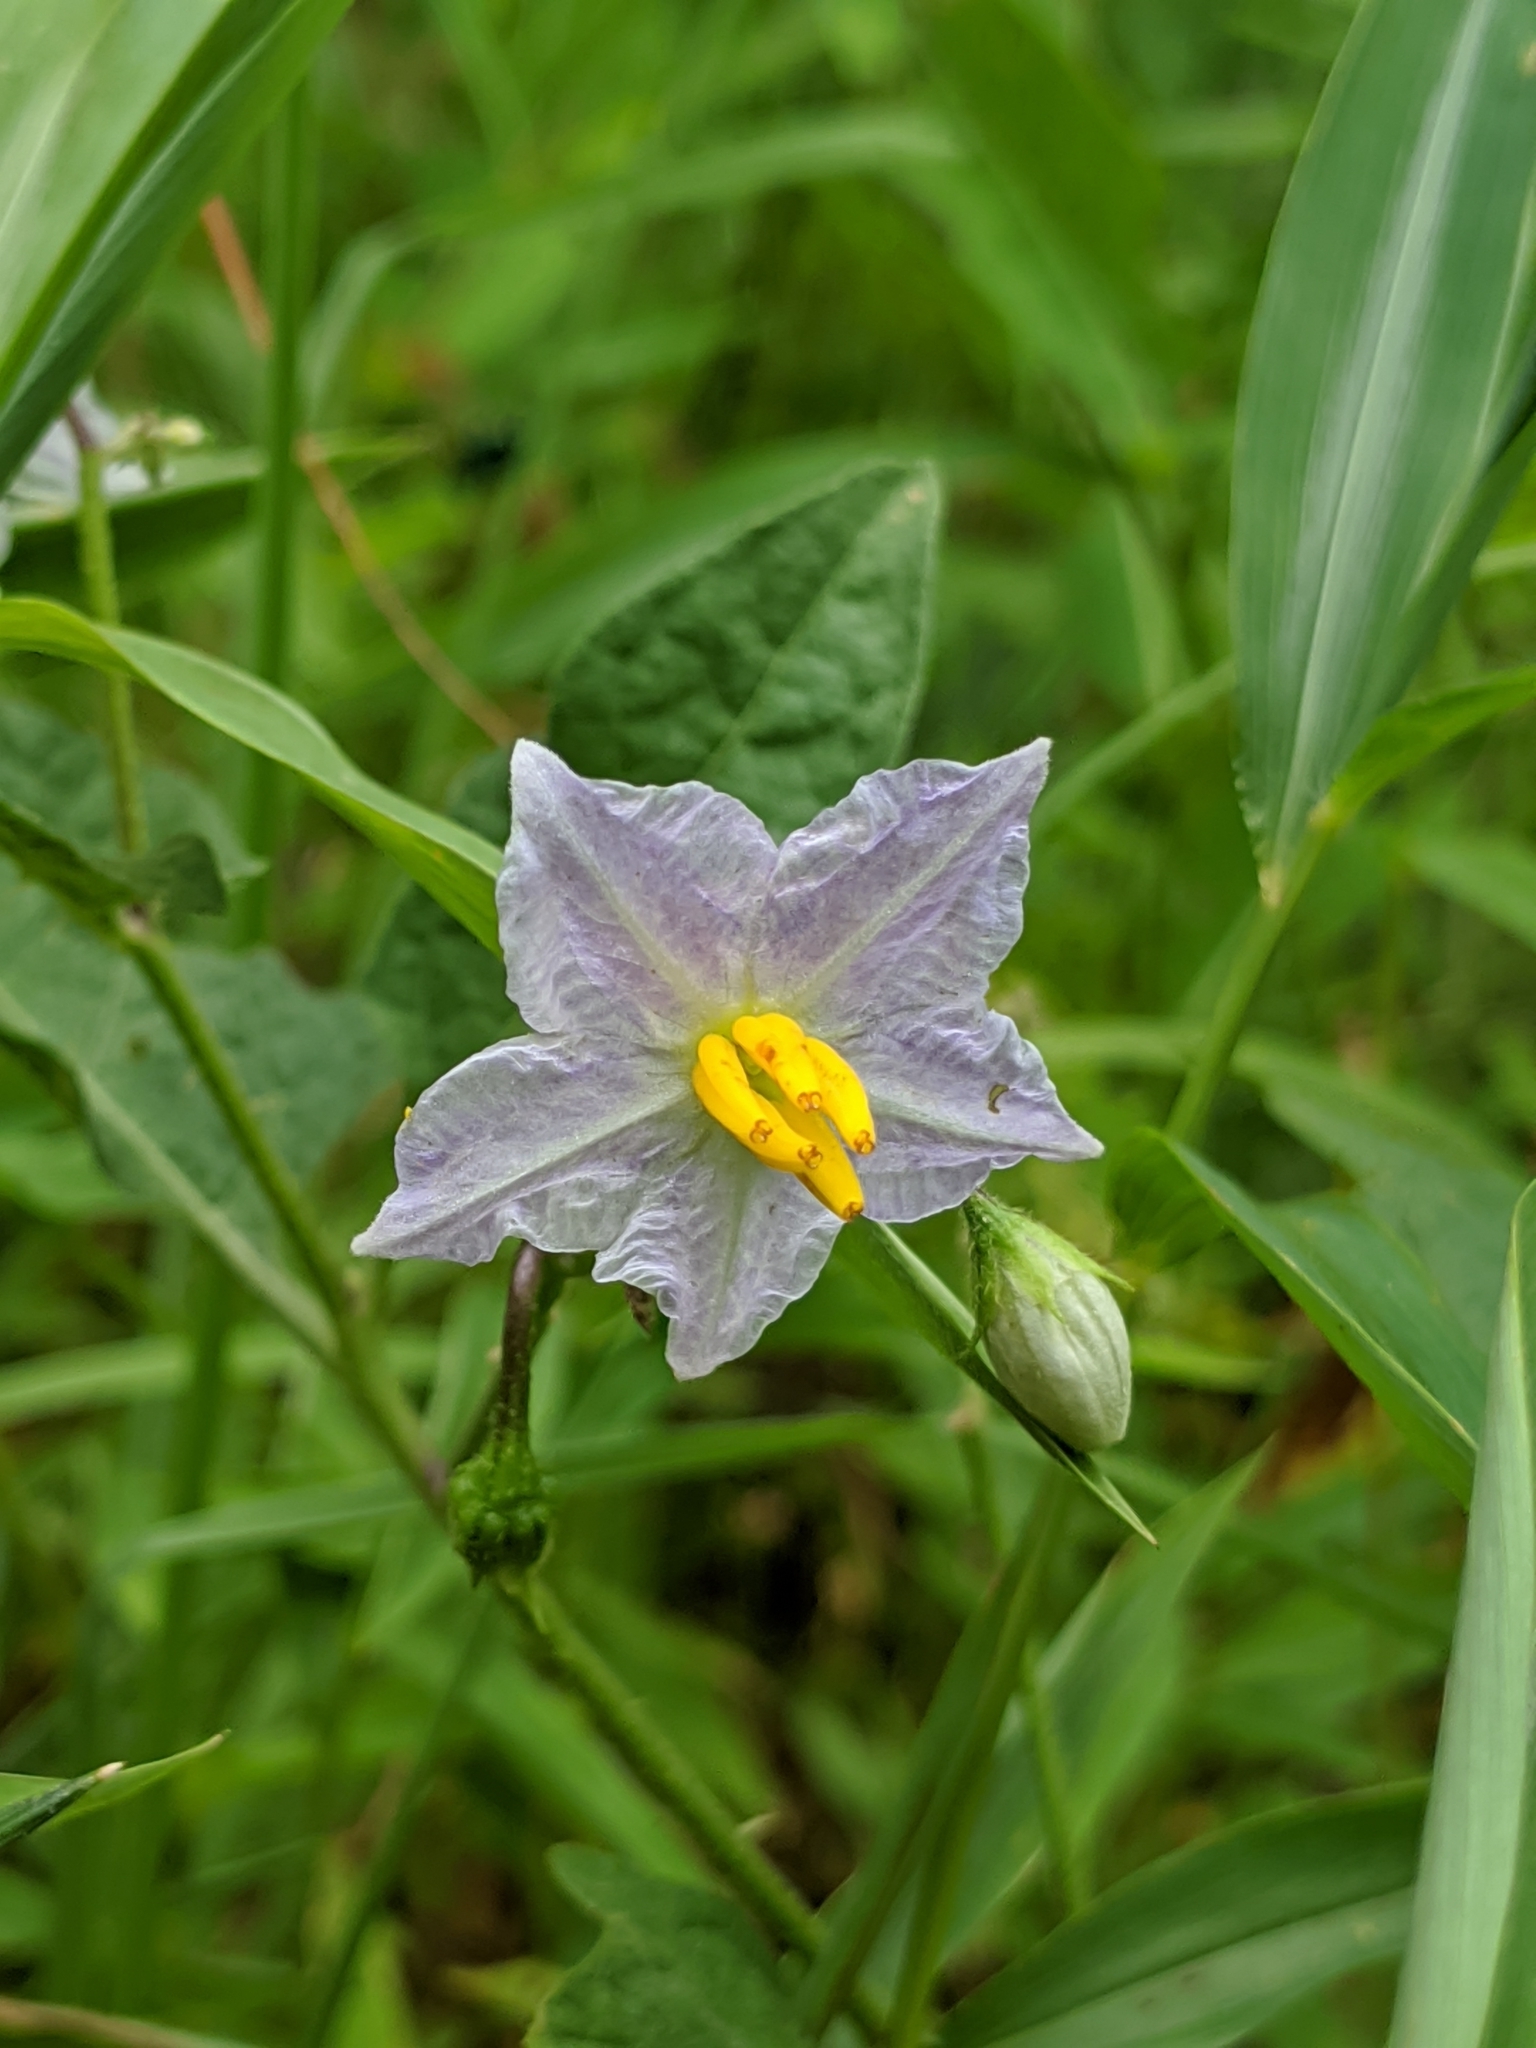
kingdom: Plantae
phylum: Tracheophyta
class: Magnoliopsida
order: Solanales
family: Solanaceae
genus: Solanum
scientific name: Solanum carolinense
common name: Horse-nettle
